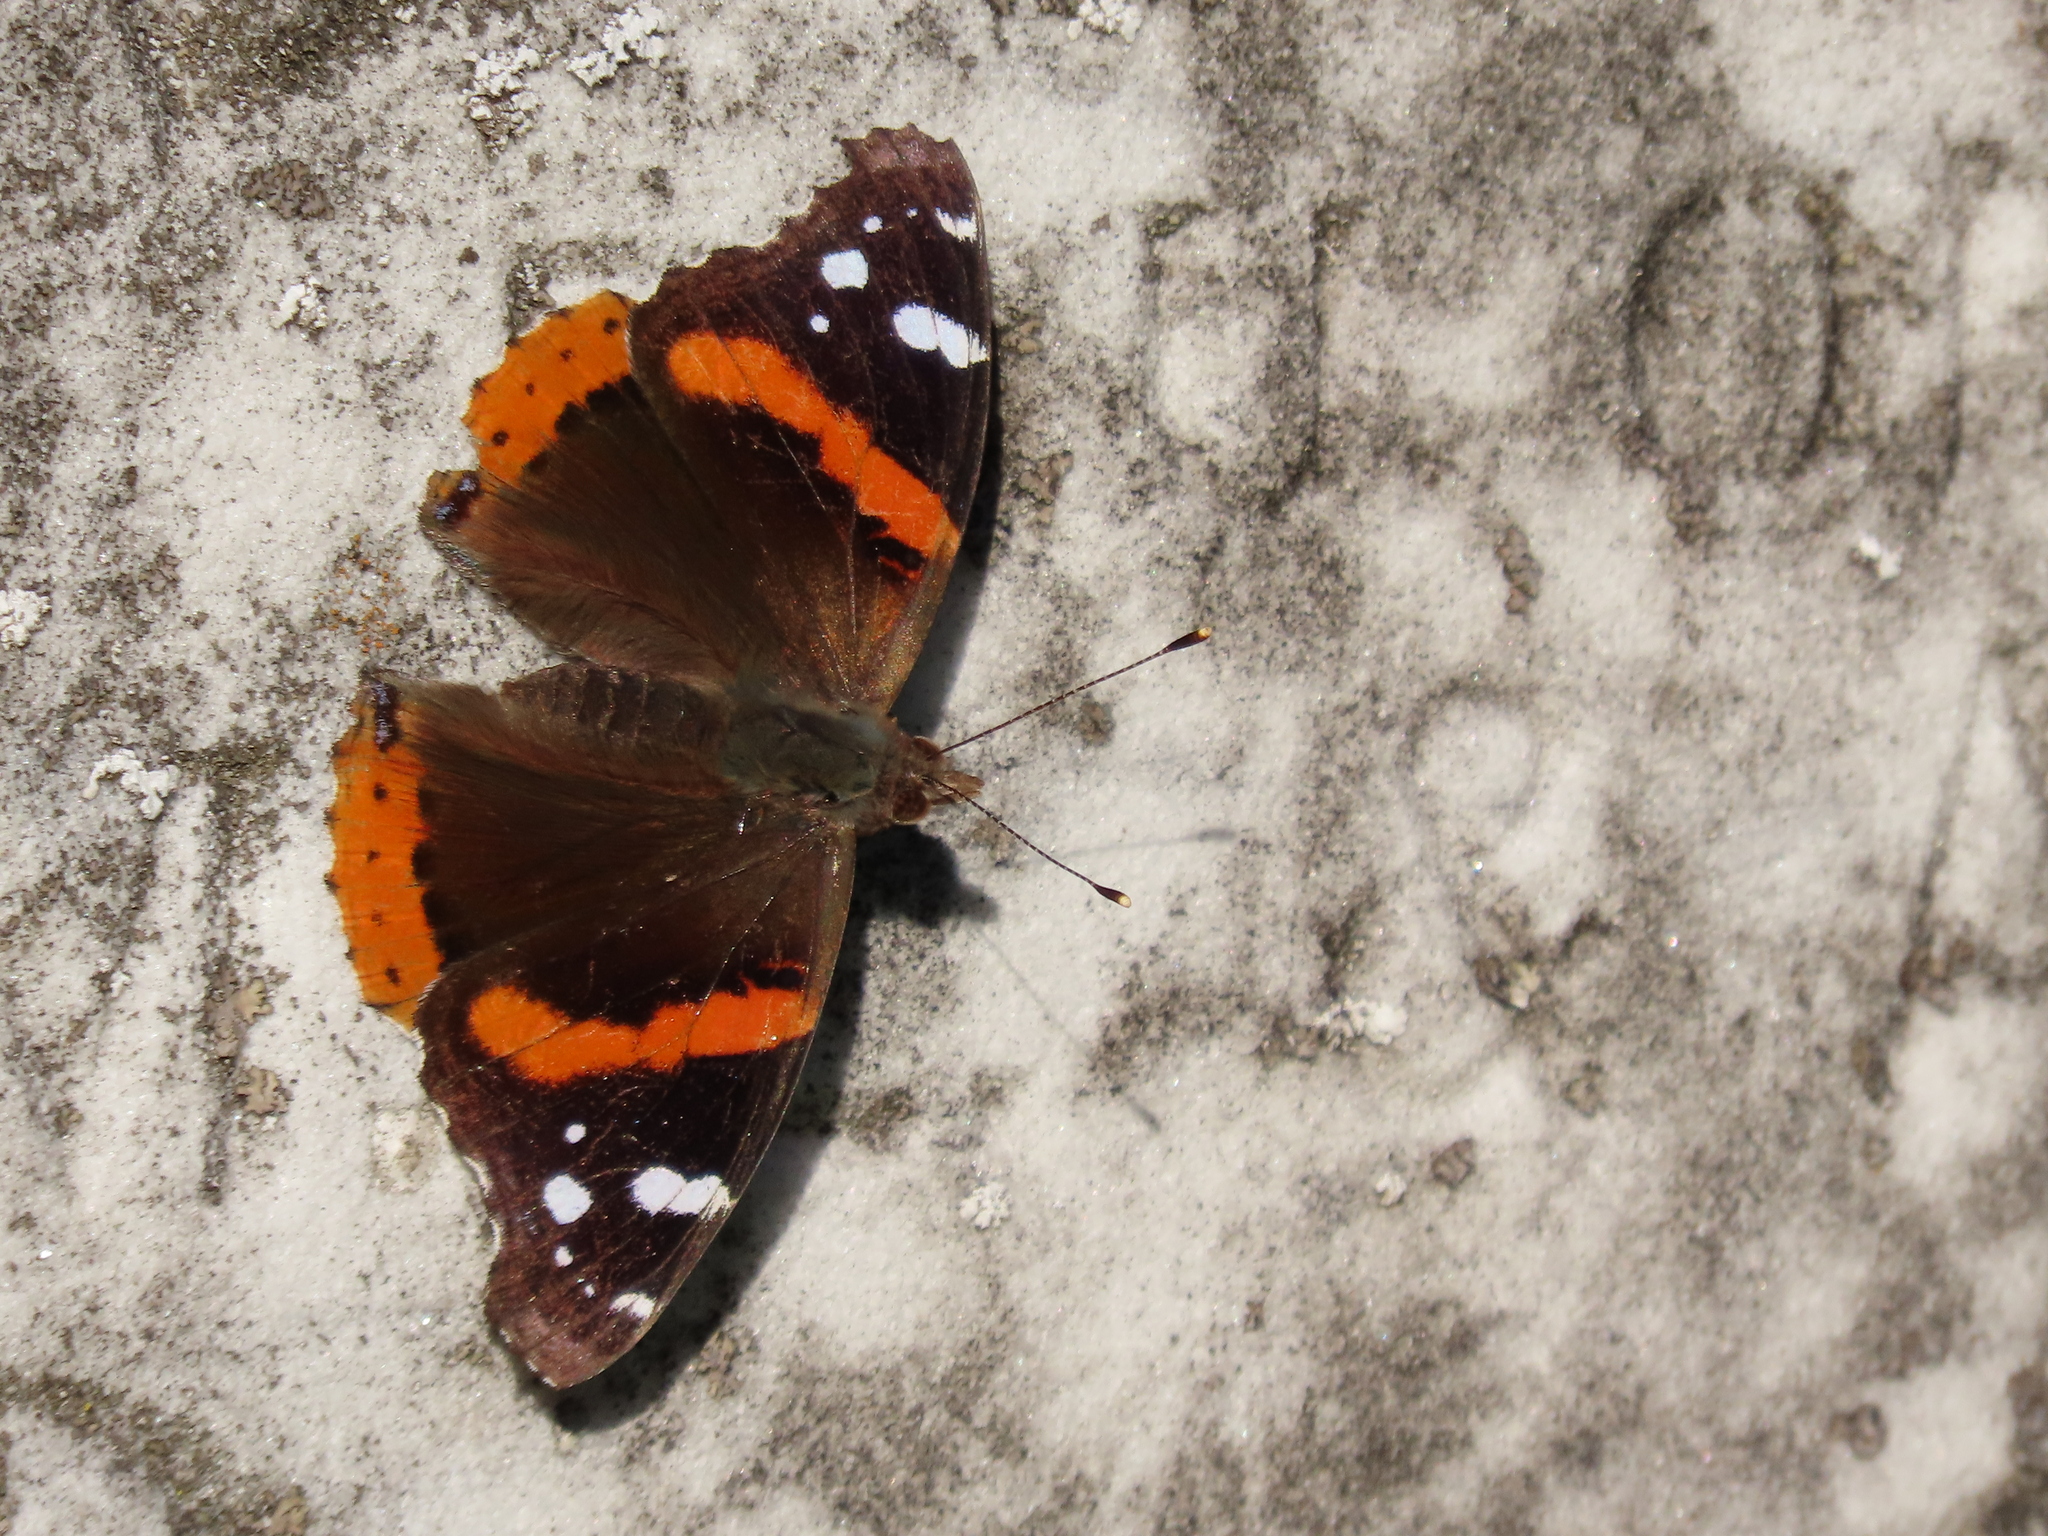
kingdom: Animalia
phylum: Arthropoda
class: Insecta
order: Lepidoptera
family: Nymphalidae
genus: Vanessa
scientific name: Vanessa atalanta
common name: Red admiral
